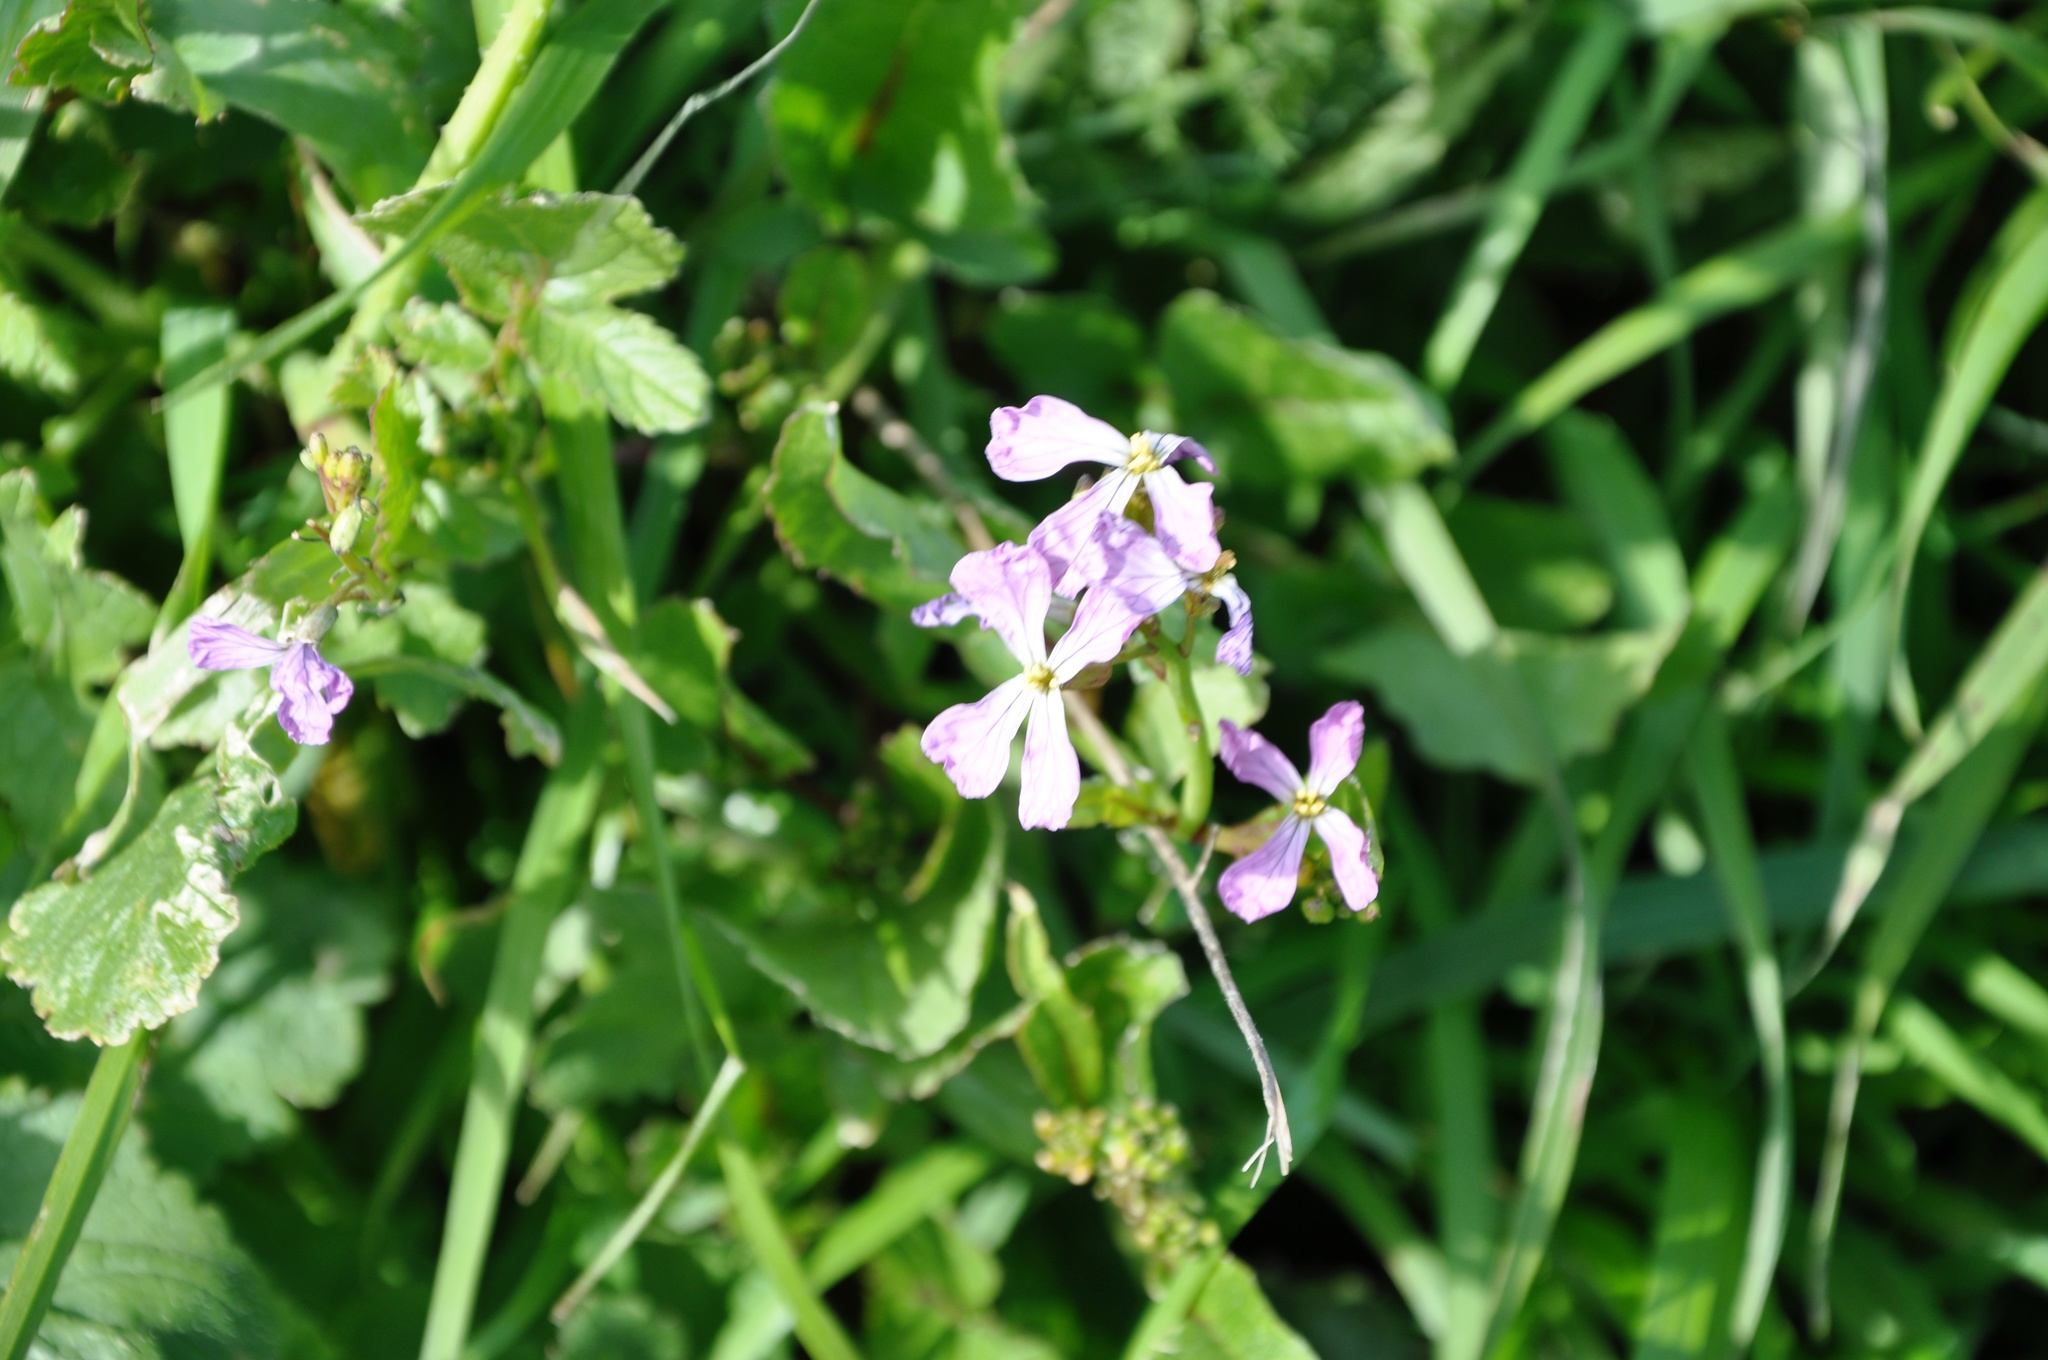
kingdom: Plantae
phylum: Tracheophyta
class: Magnoliopsida
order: Brassicales
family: Brassicaceae
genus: Raphanus
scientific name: Raphanus sativus
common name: Cultivated radish
